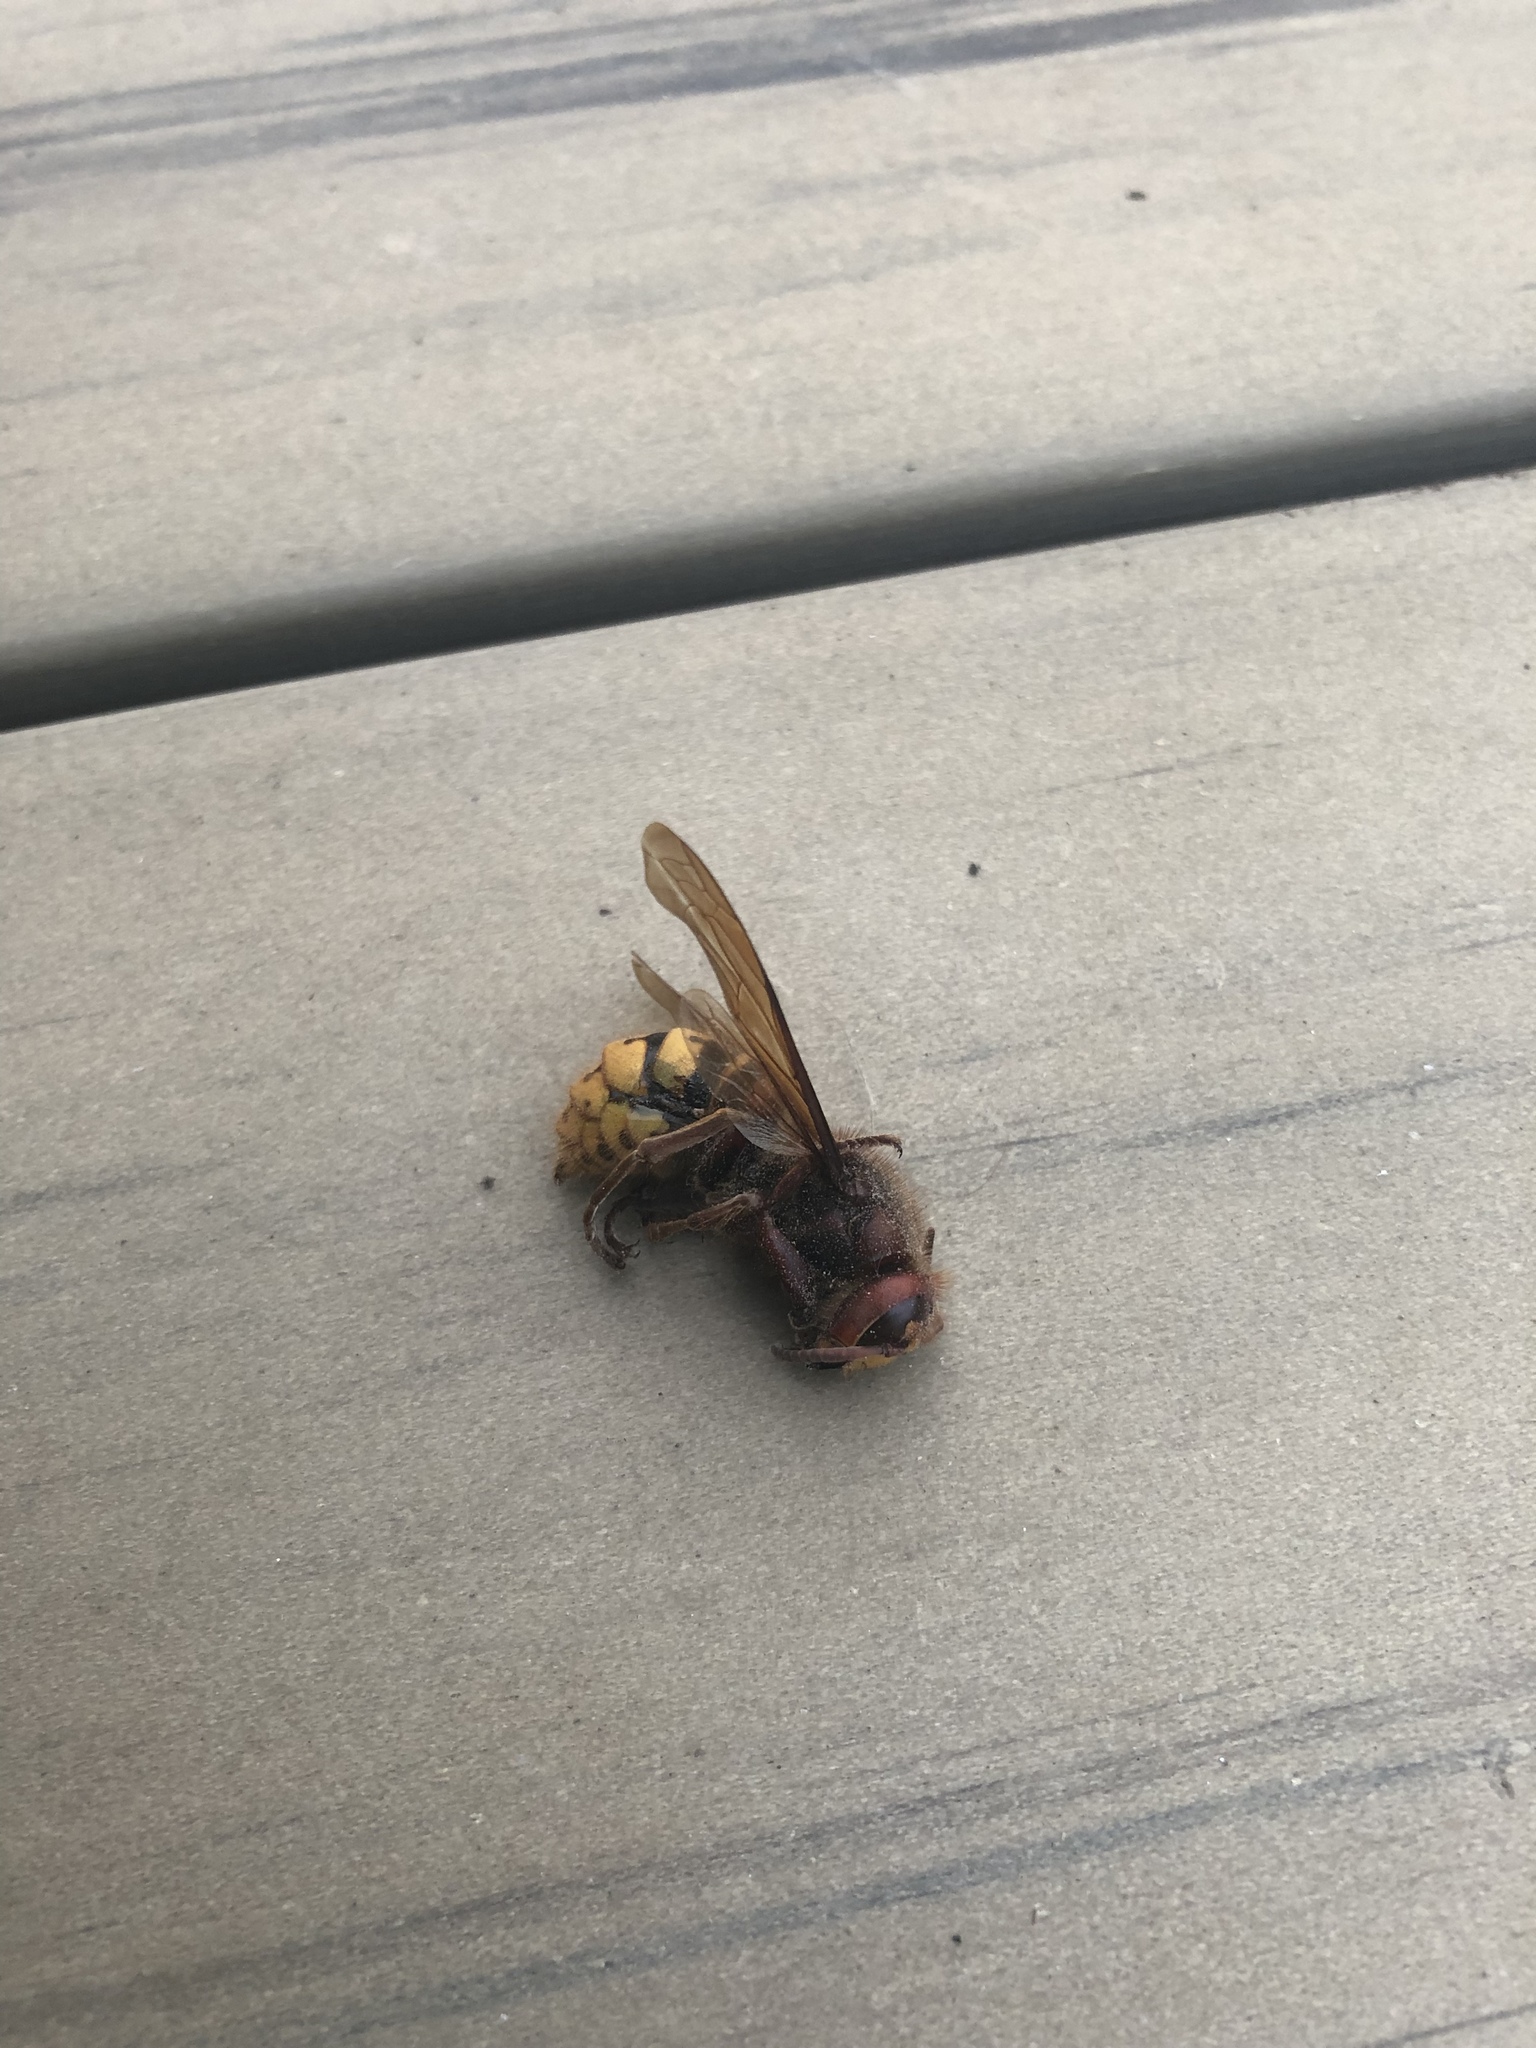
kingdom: Animalia
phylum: Arthropoda
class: Insecta
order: Hymenoptera
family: Vespidae
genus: Vespa
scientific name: Vespa crabro
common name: Hornet
